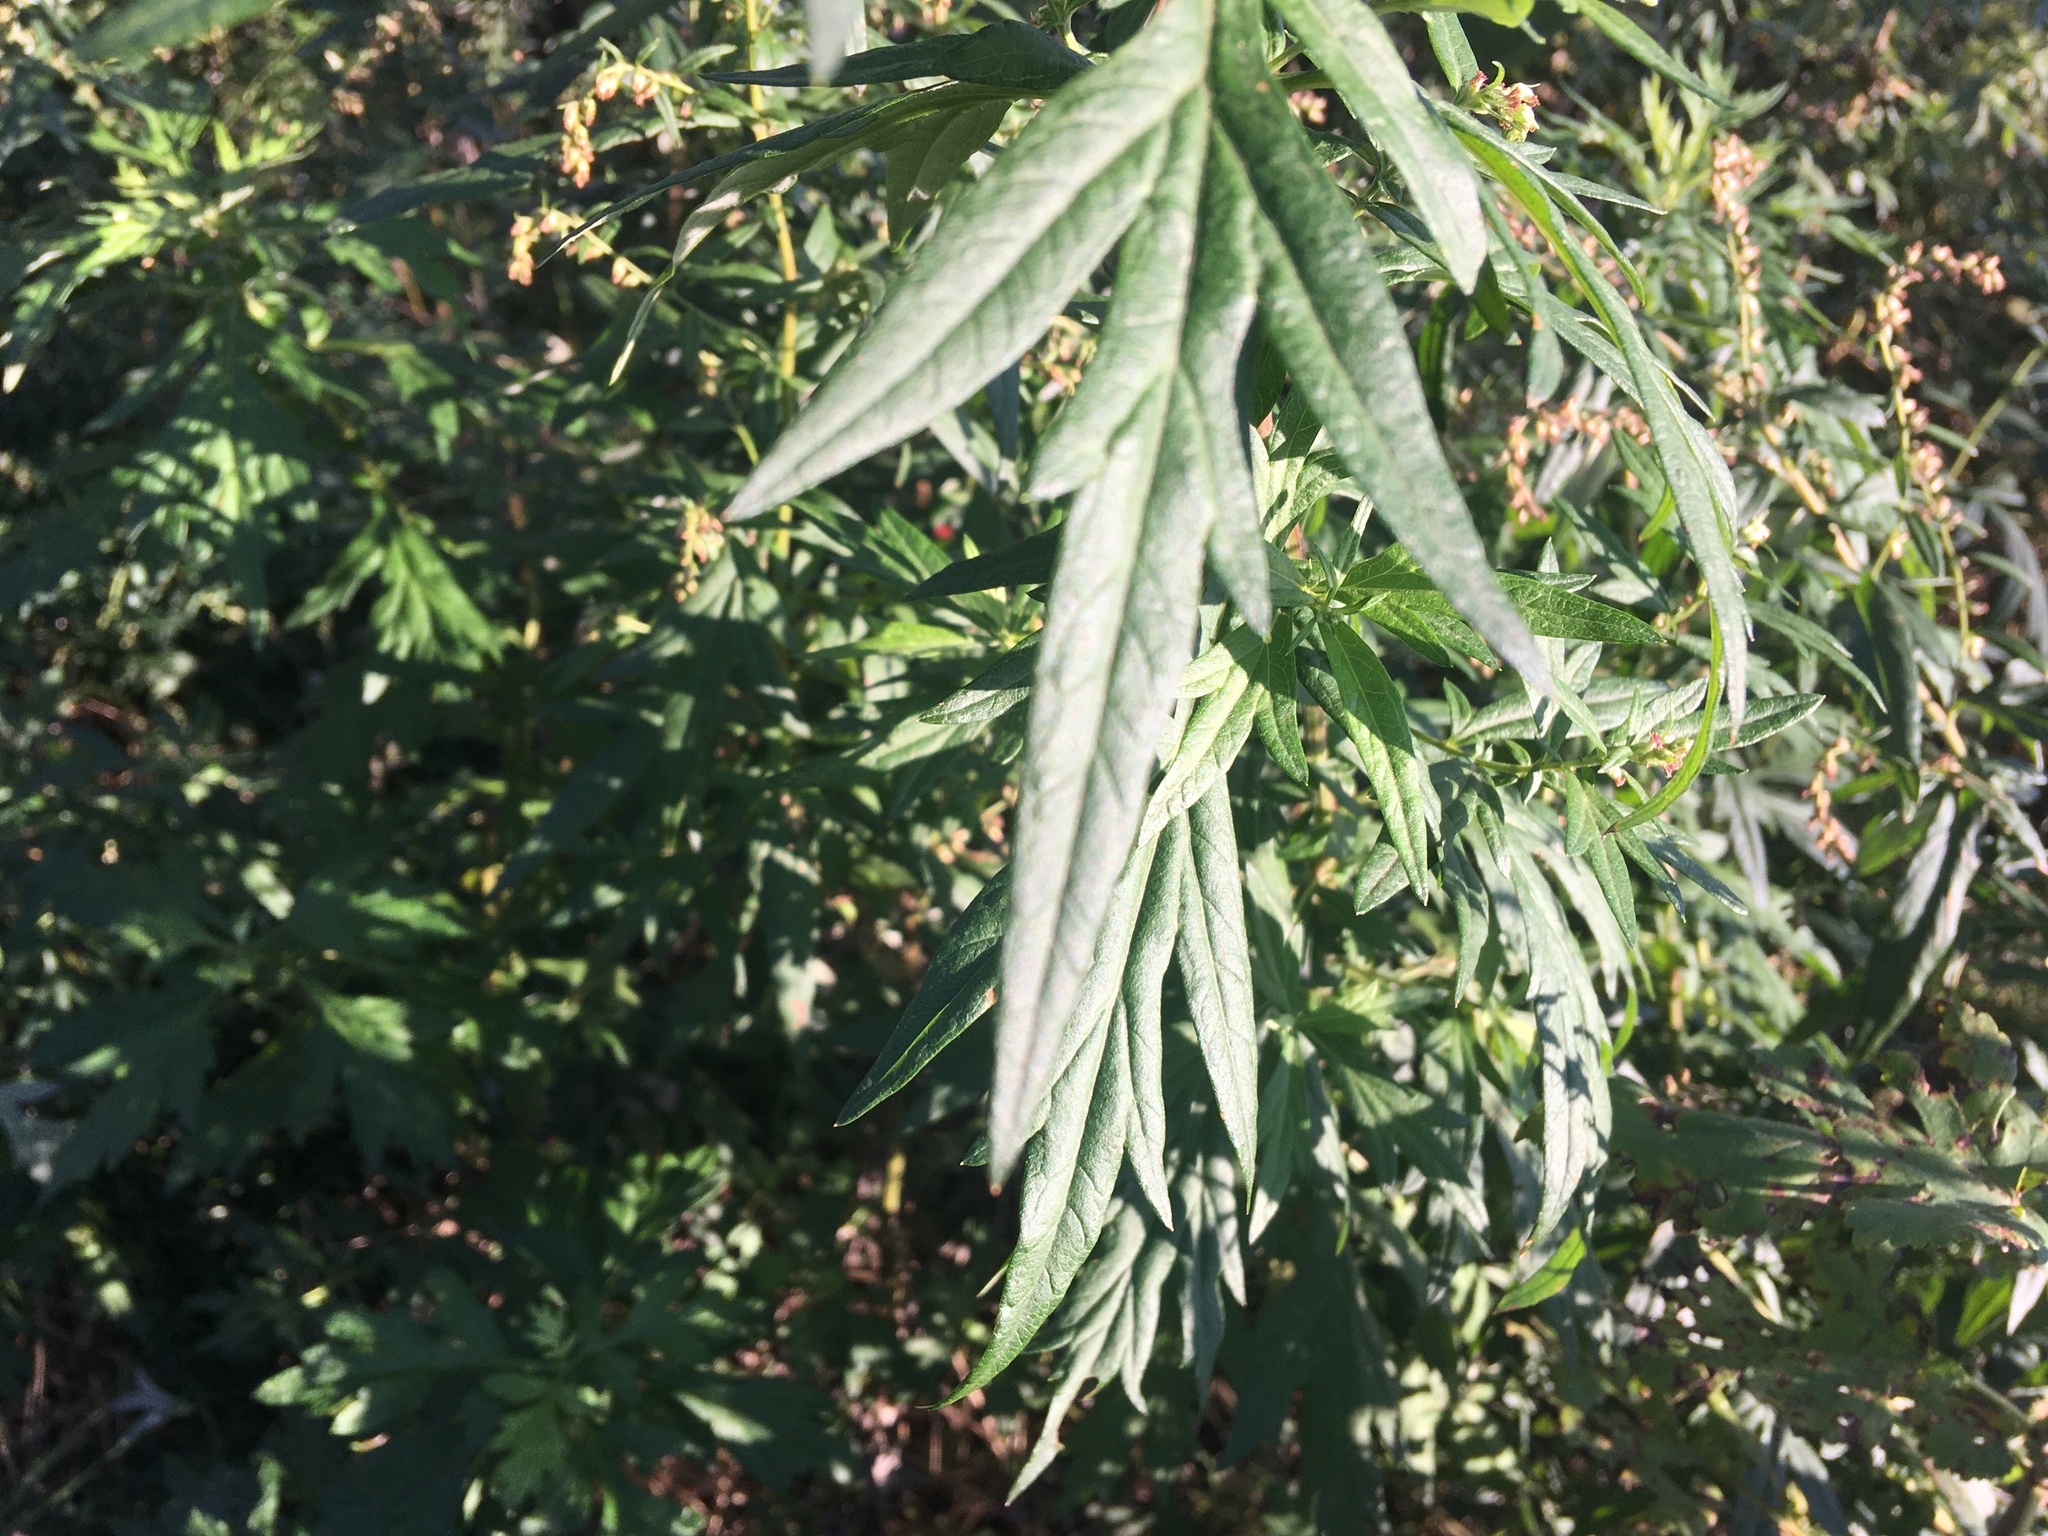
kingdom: Plantae
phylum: Tracheophyta
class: Magnoliopsida
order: Asterales
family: Asteraceae
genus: Artemisia
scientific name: Artemisia vulgaris
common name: Mugwort
